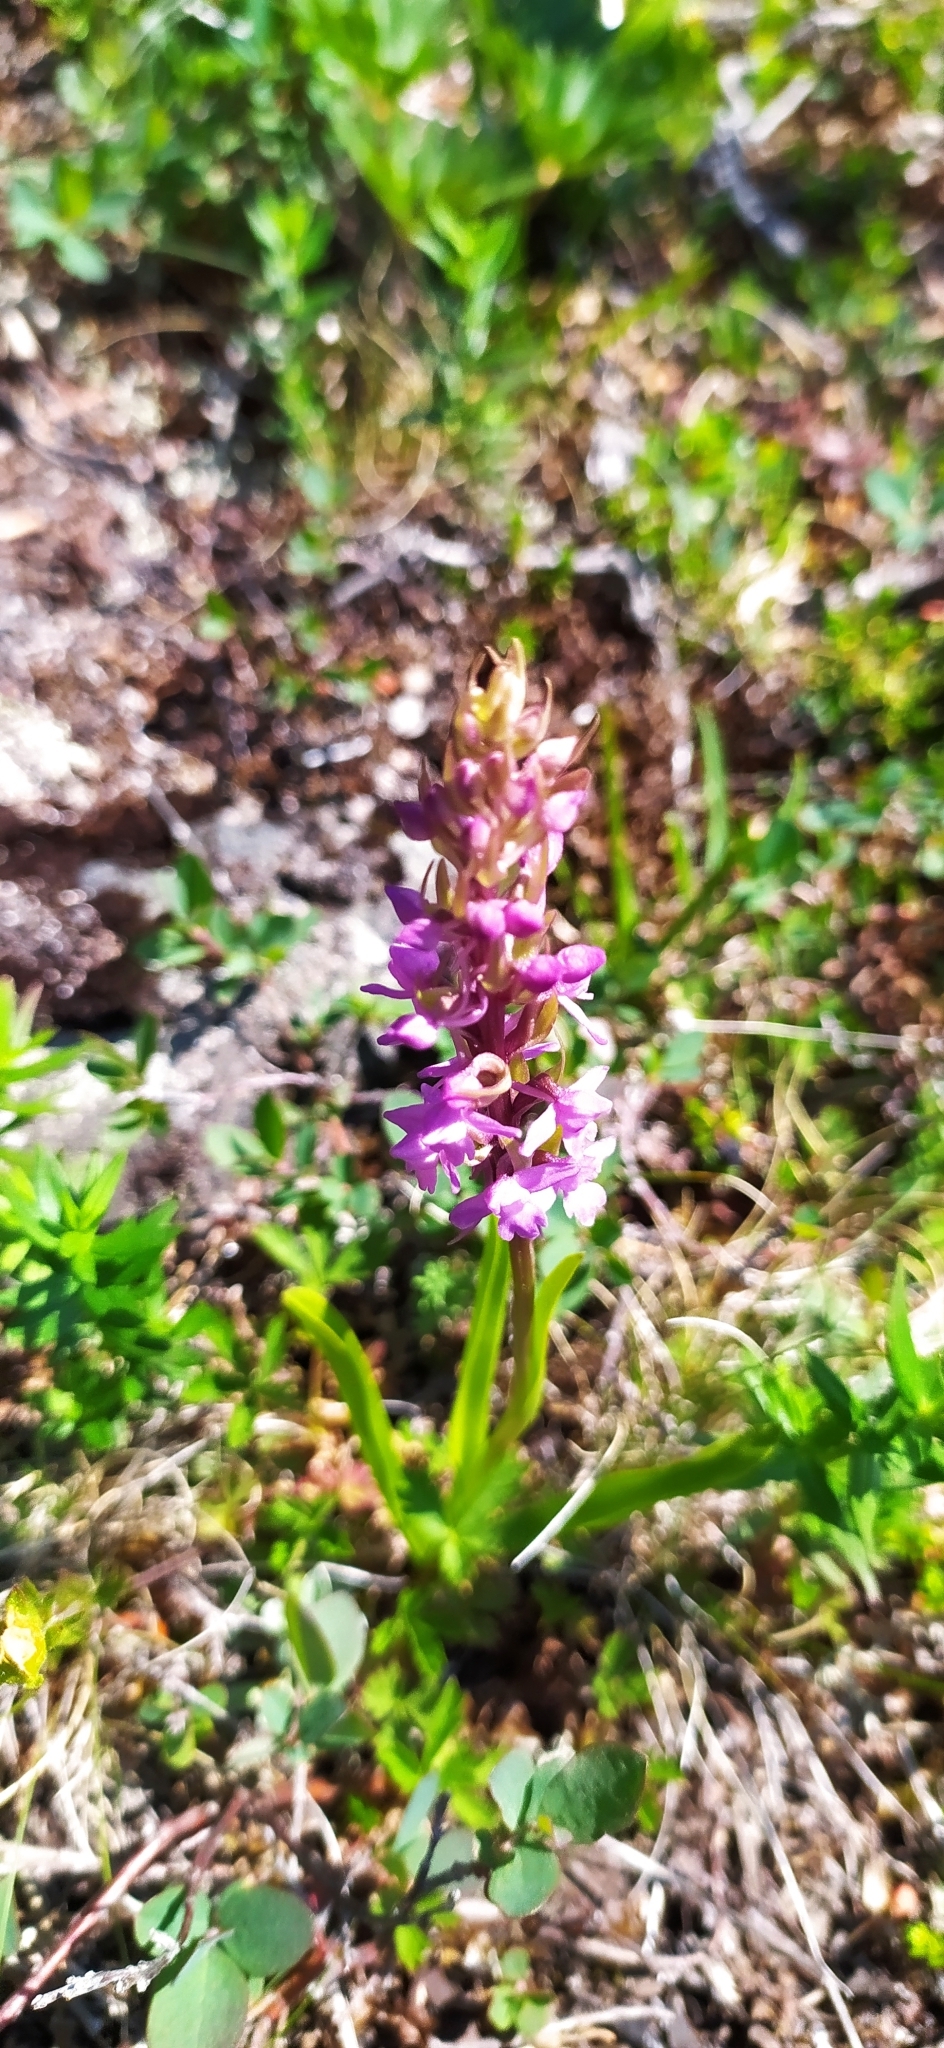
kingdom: Plantae
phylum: Tracheophyta
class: Liliopsida
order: Asparagales
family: Orchidaceae
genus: Gymnadenia
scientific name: Gymnadenia conopsea
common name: Fragrant orchid
